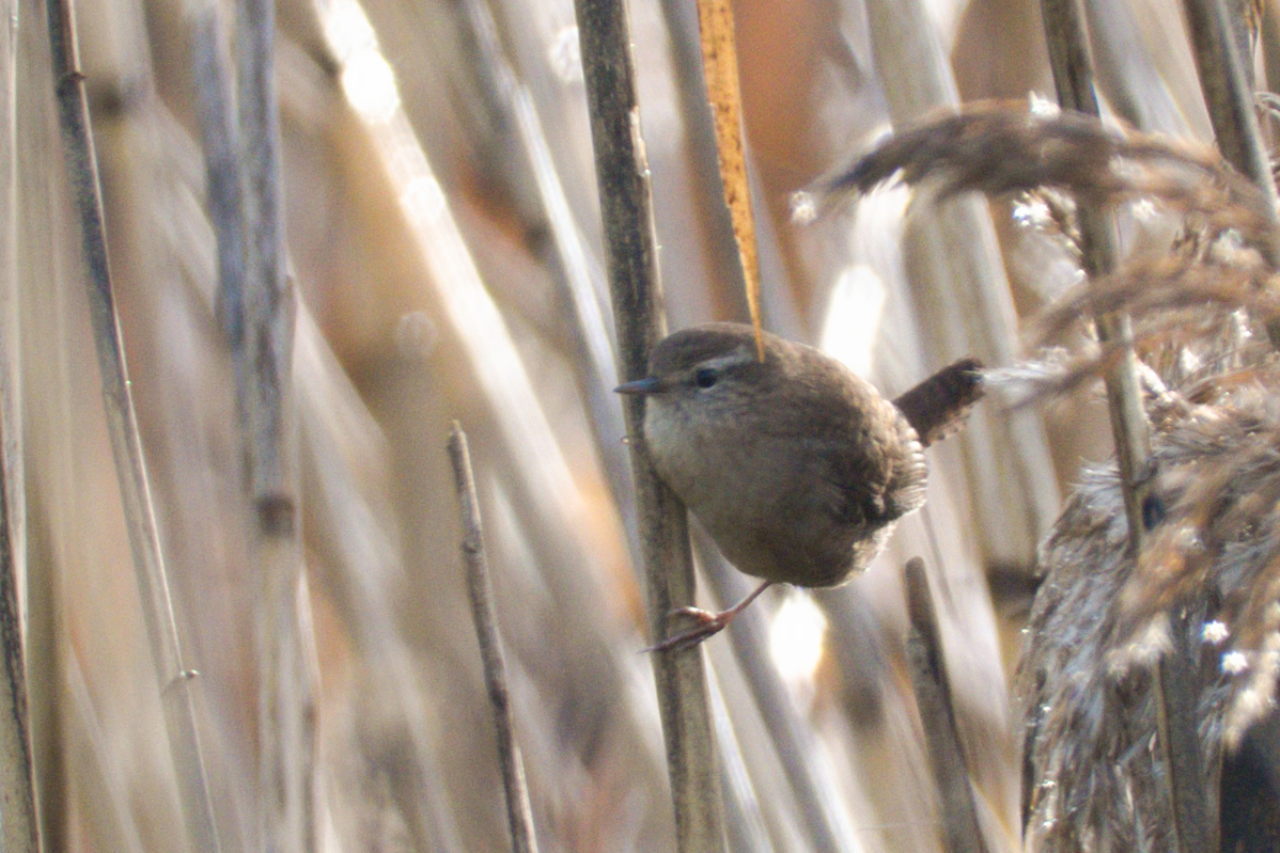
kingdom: Animalia
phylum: Chordata
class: Aves
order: Passeriformes
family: Troglodytidae
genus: Troglodytes
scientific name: Troglodytes troglodytes
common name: Eurasian wren
